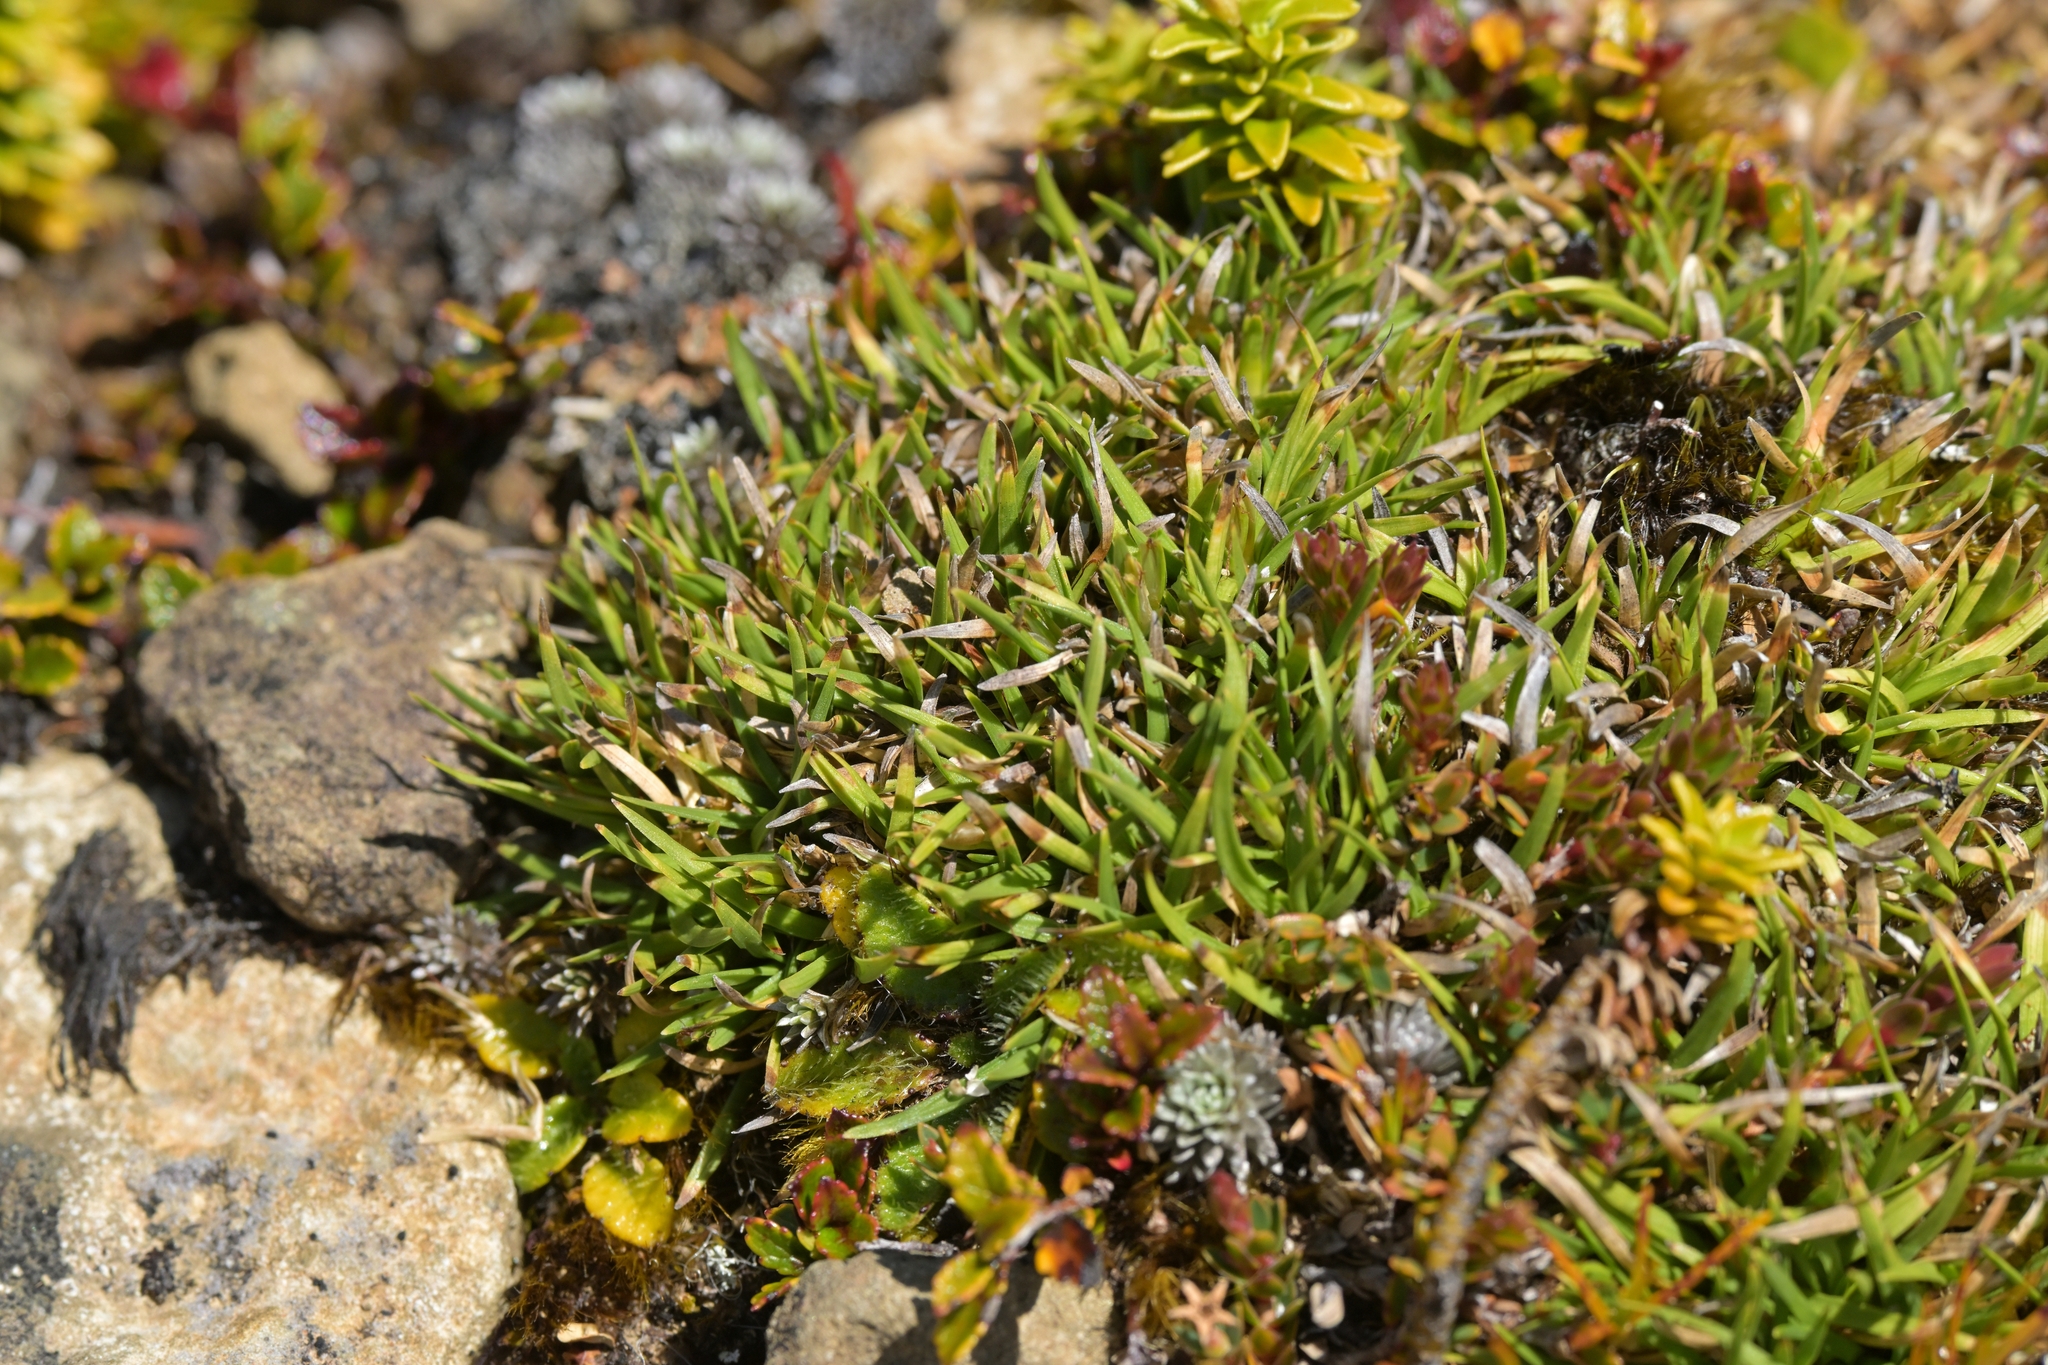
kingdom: Plantae
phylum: Tracheophyta
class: Liliopsida
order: Poales
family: Cyperaceae
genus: Oreobolus
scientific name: Oreobolus impar
